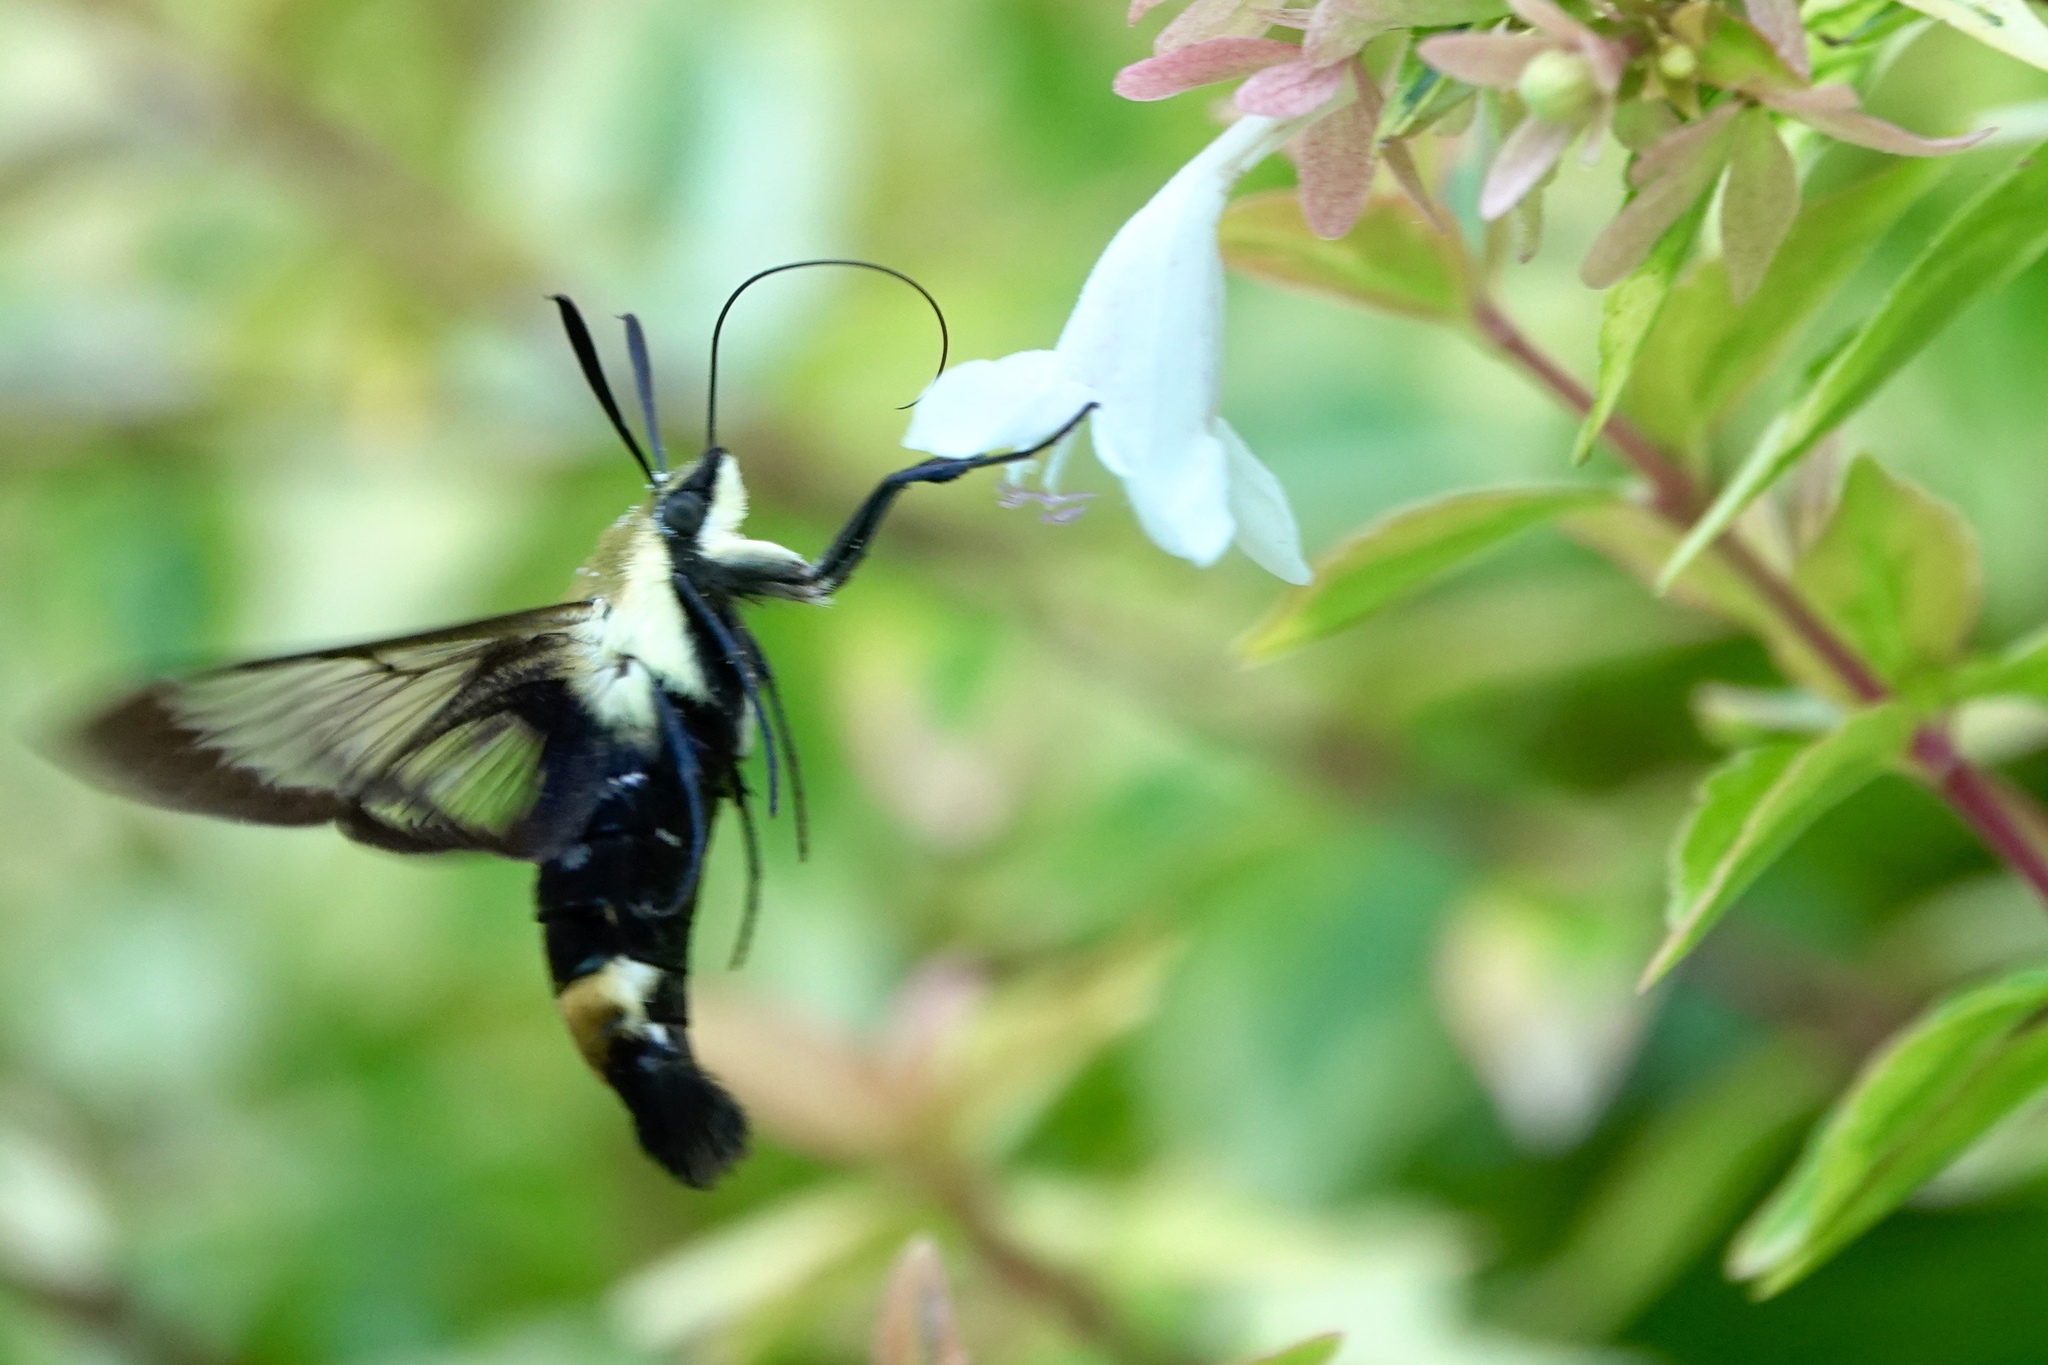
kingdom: Animalia
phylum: Arthropoda
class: Insecta
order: Lepidoptera
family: Sphingidae
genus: Hemaris
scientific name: Hemaris diffinis
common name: Bumblebee moth
